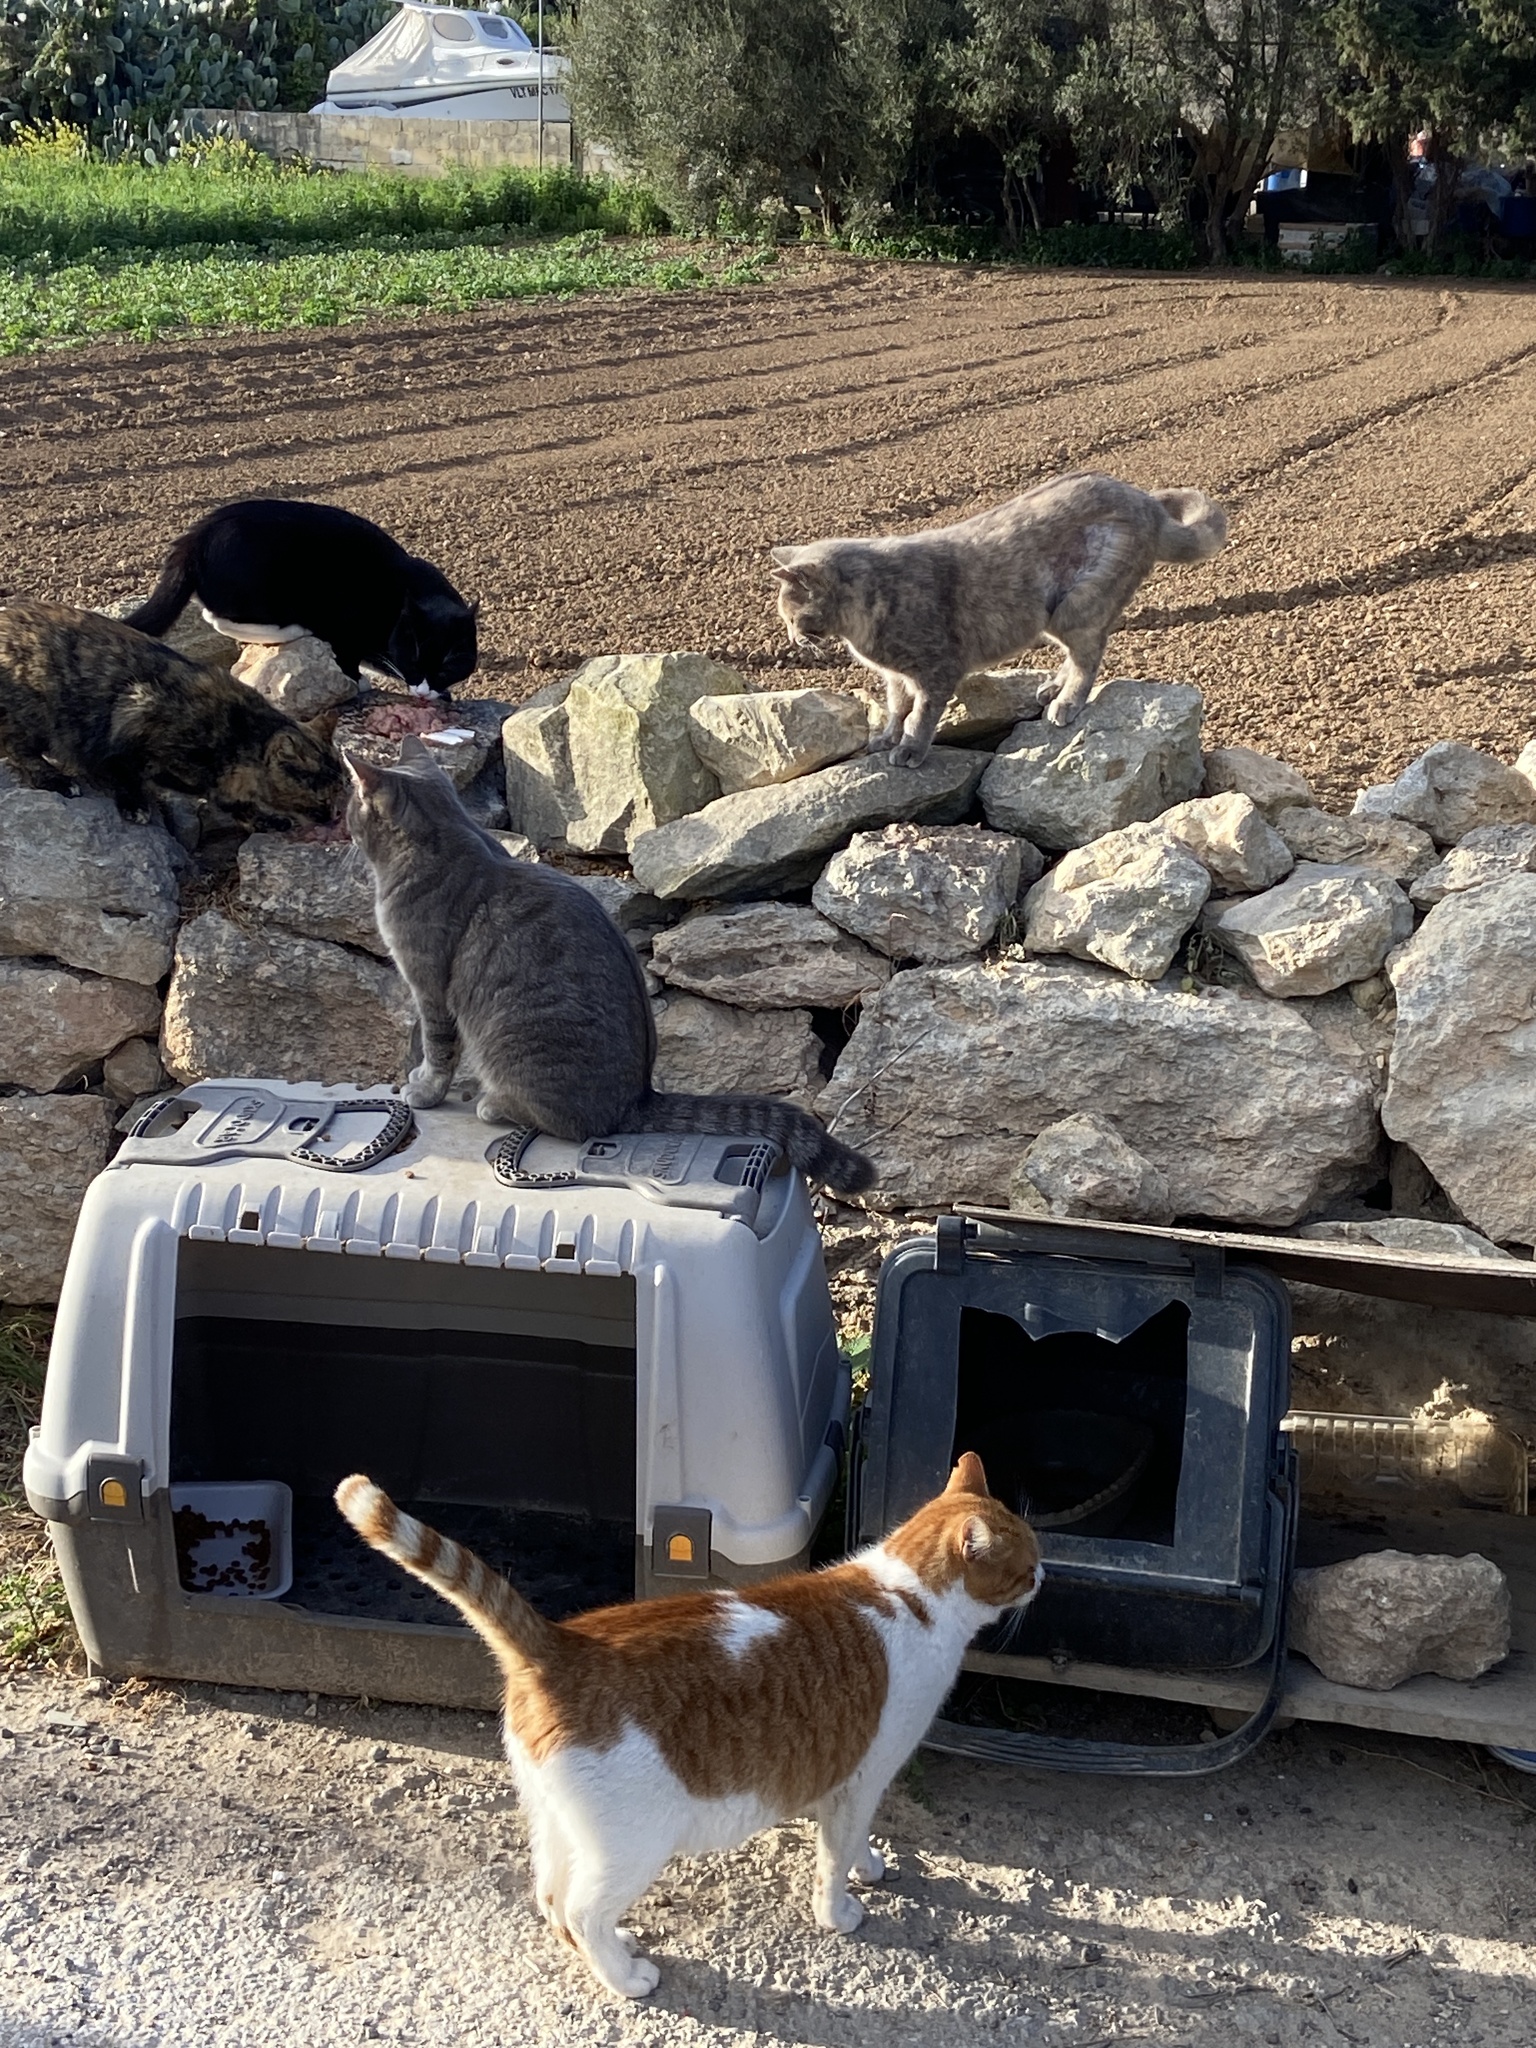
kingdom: Animalia
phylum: Chordata
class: Mammalia
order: Carnivora
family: Felidae
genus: Felis
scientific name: Felis catus
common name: Domestic cat
